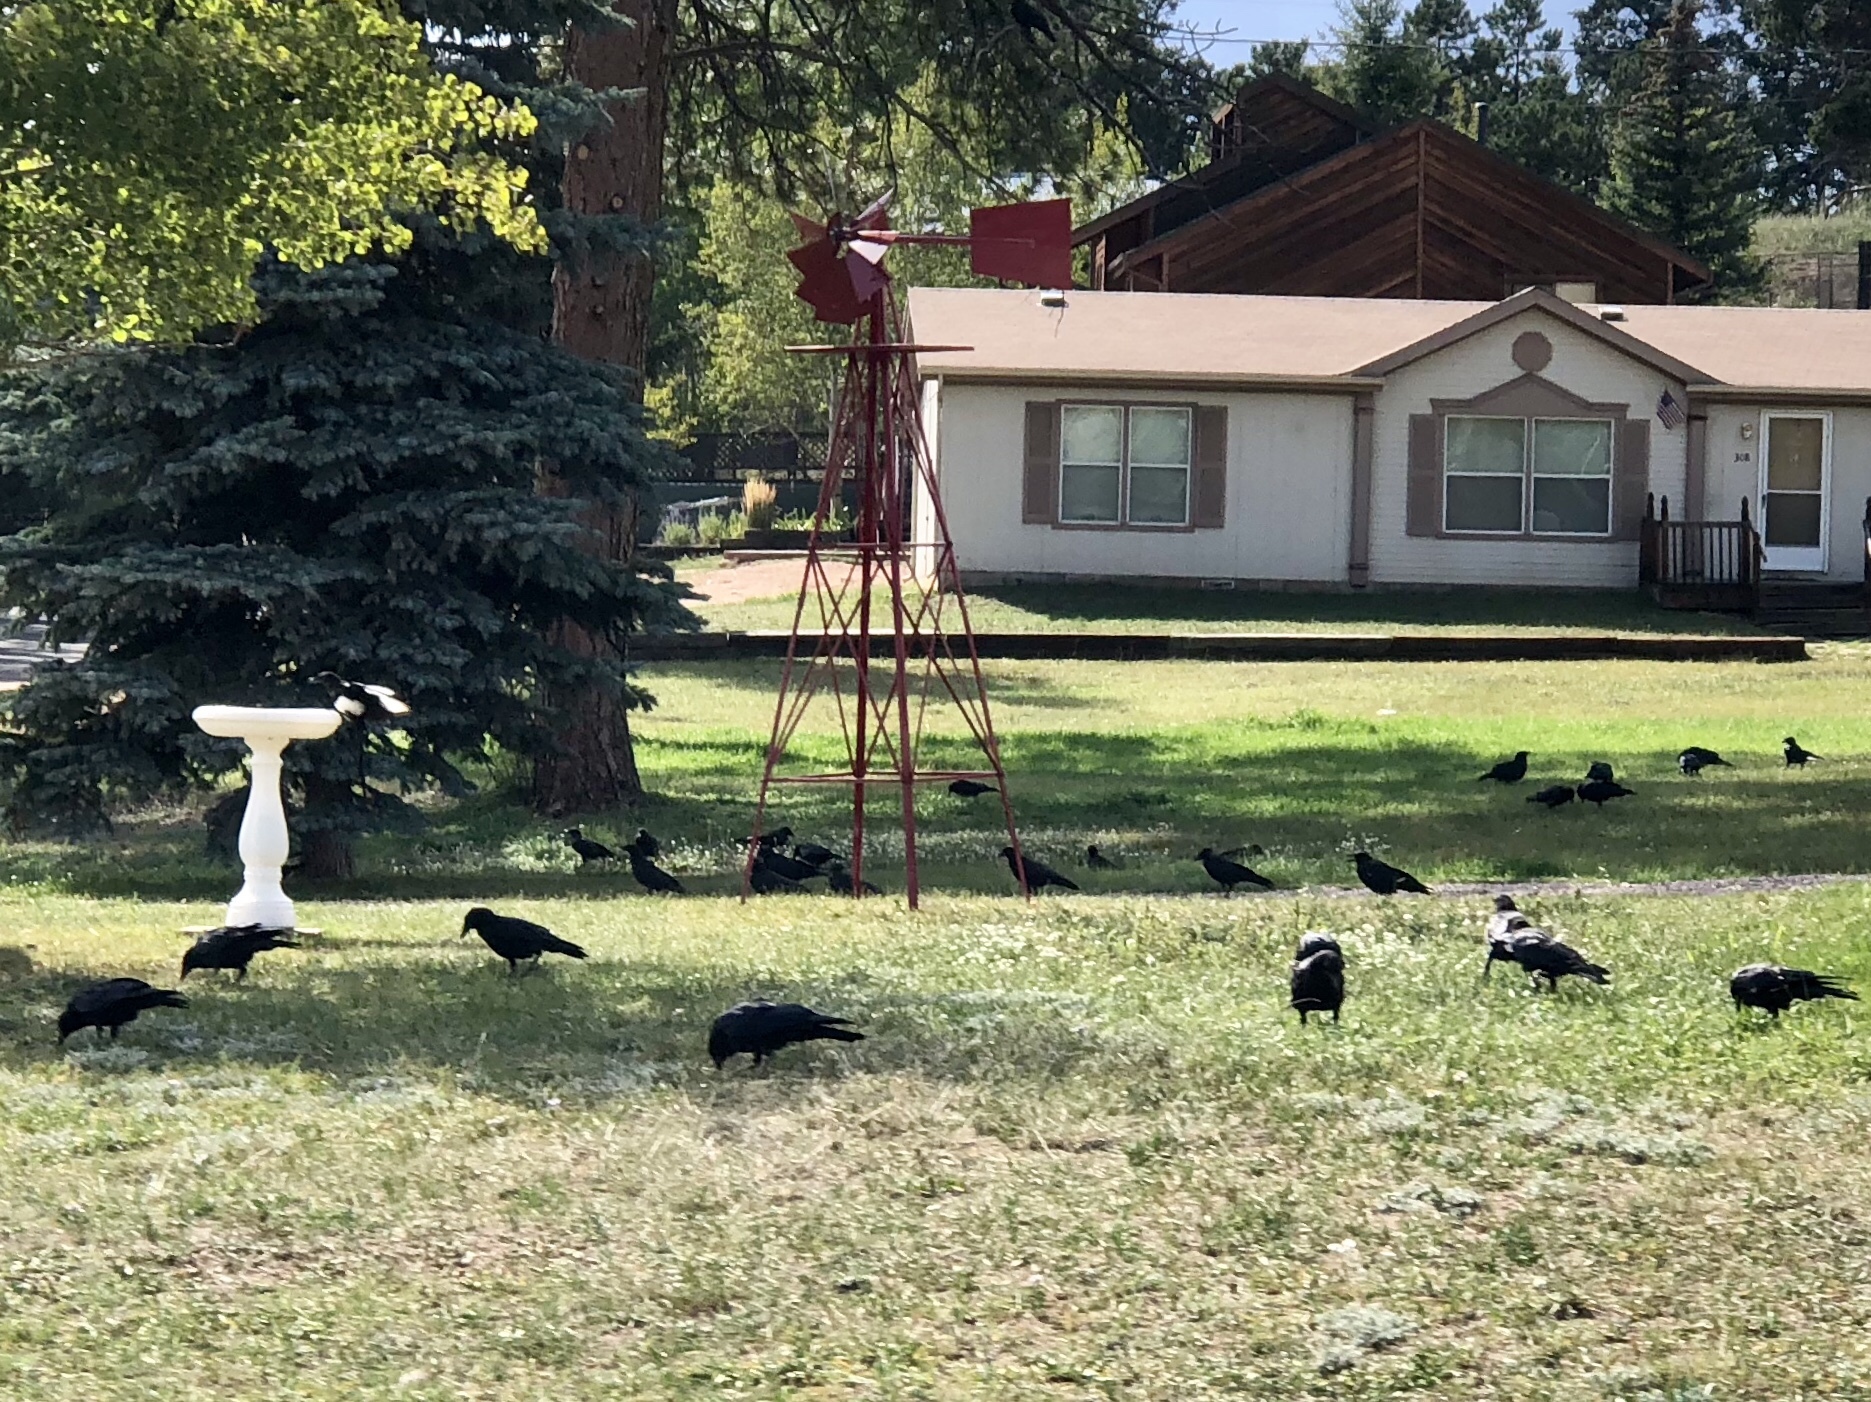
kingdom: Animalia
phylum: Chordata
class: Aves
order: Passeriformes
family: Corvidae
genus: Corvus
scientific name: Corvus brachyrhynchos
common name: American crow
